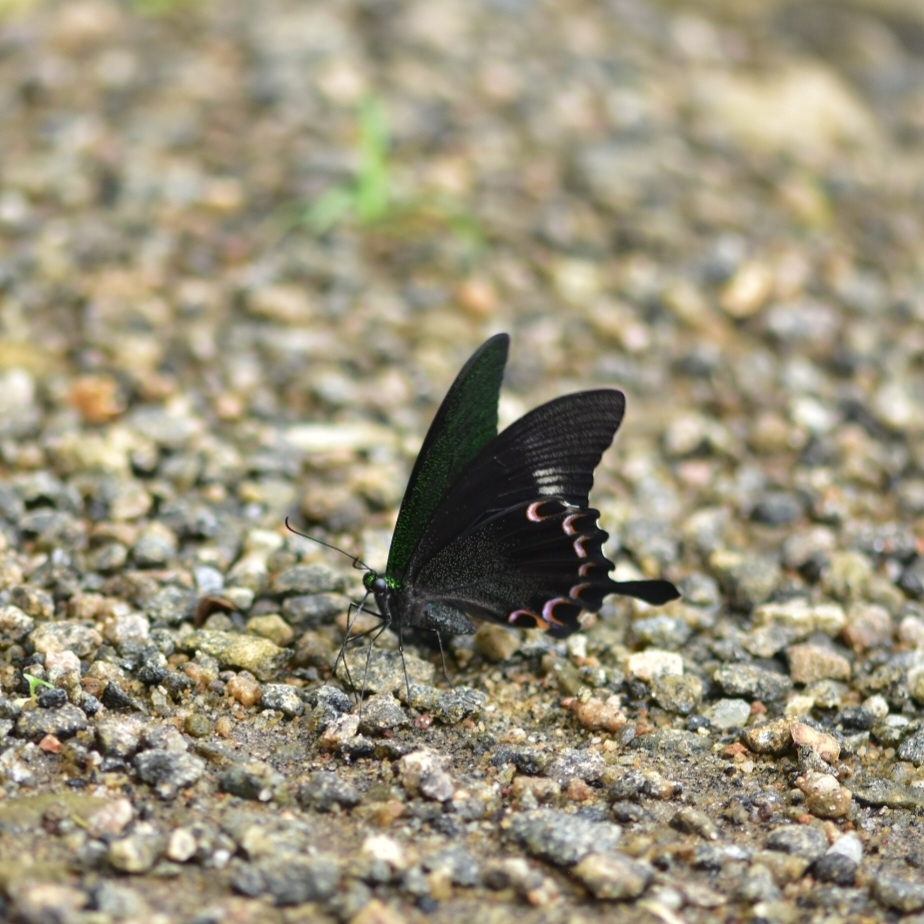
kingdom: Animalia
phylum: Arthropoda
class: Insecta
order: Lepidoptera
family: Papilionidae
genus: Papilio
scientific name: Papilio paris
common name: Paris peacock
